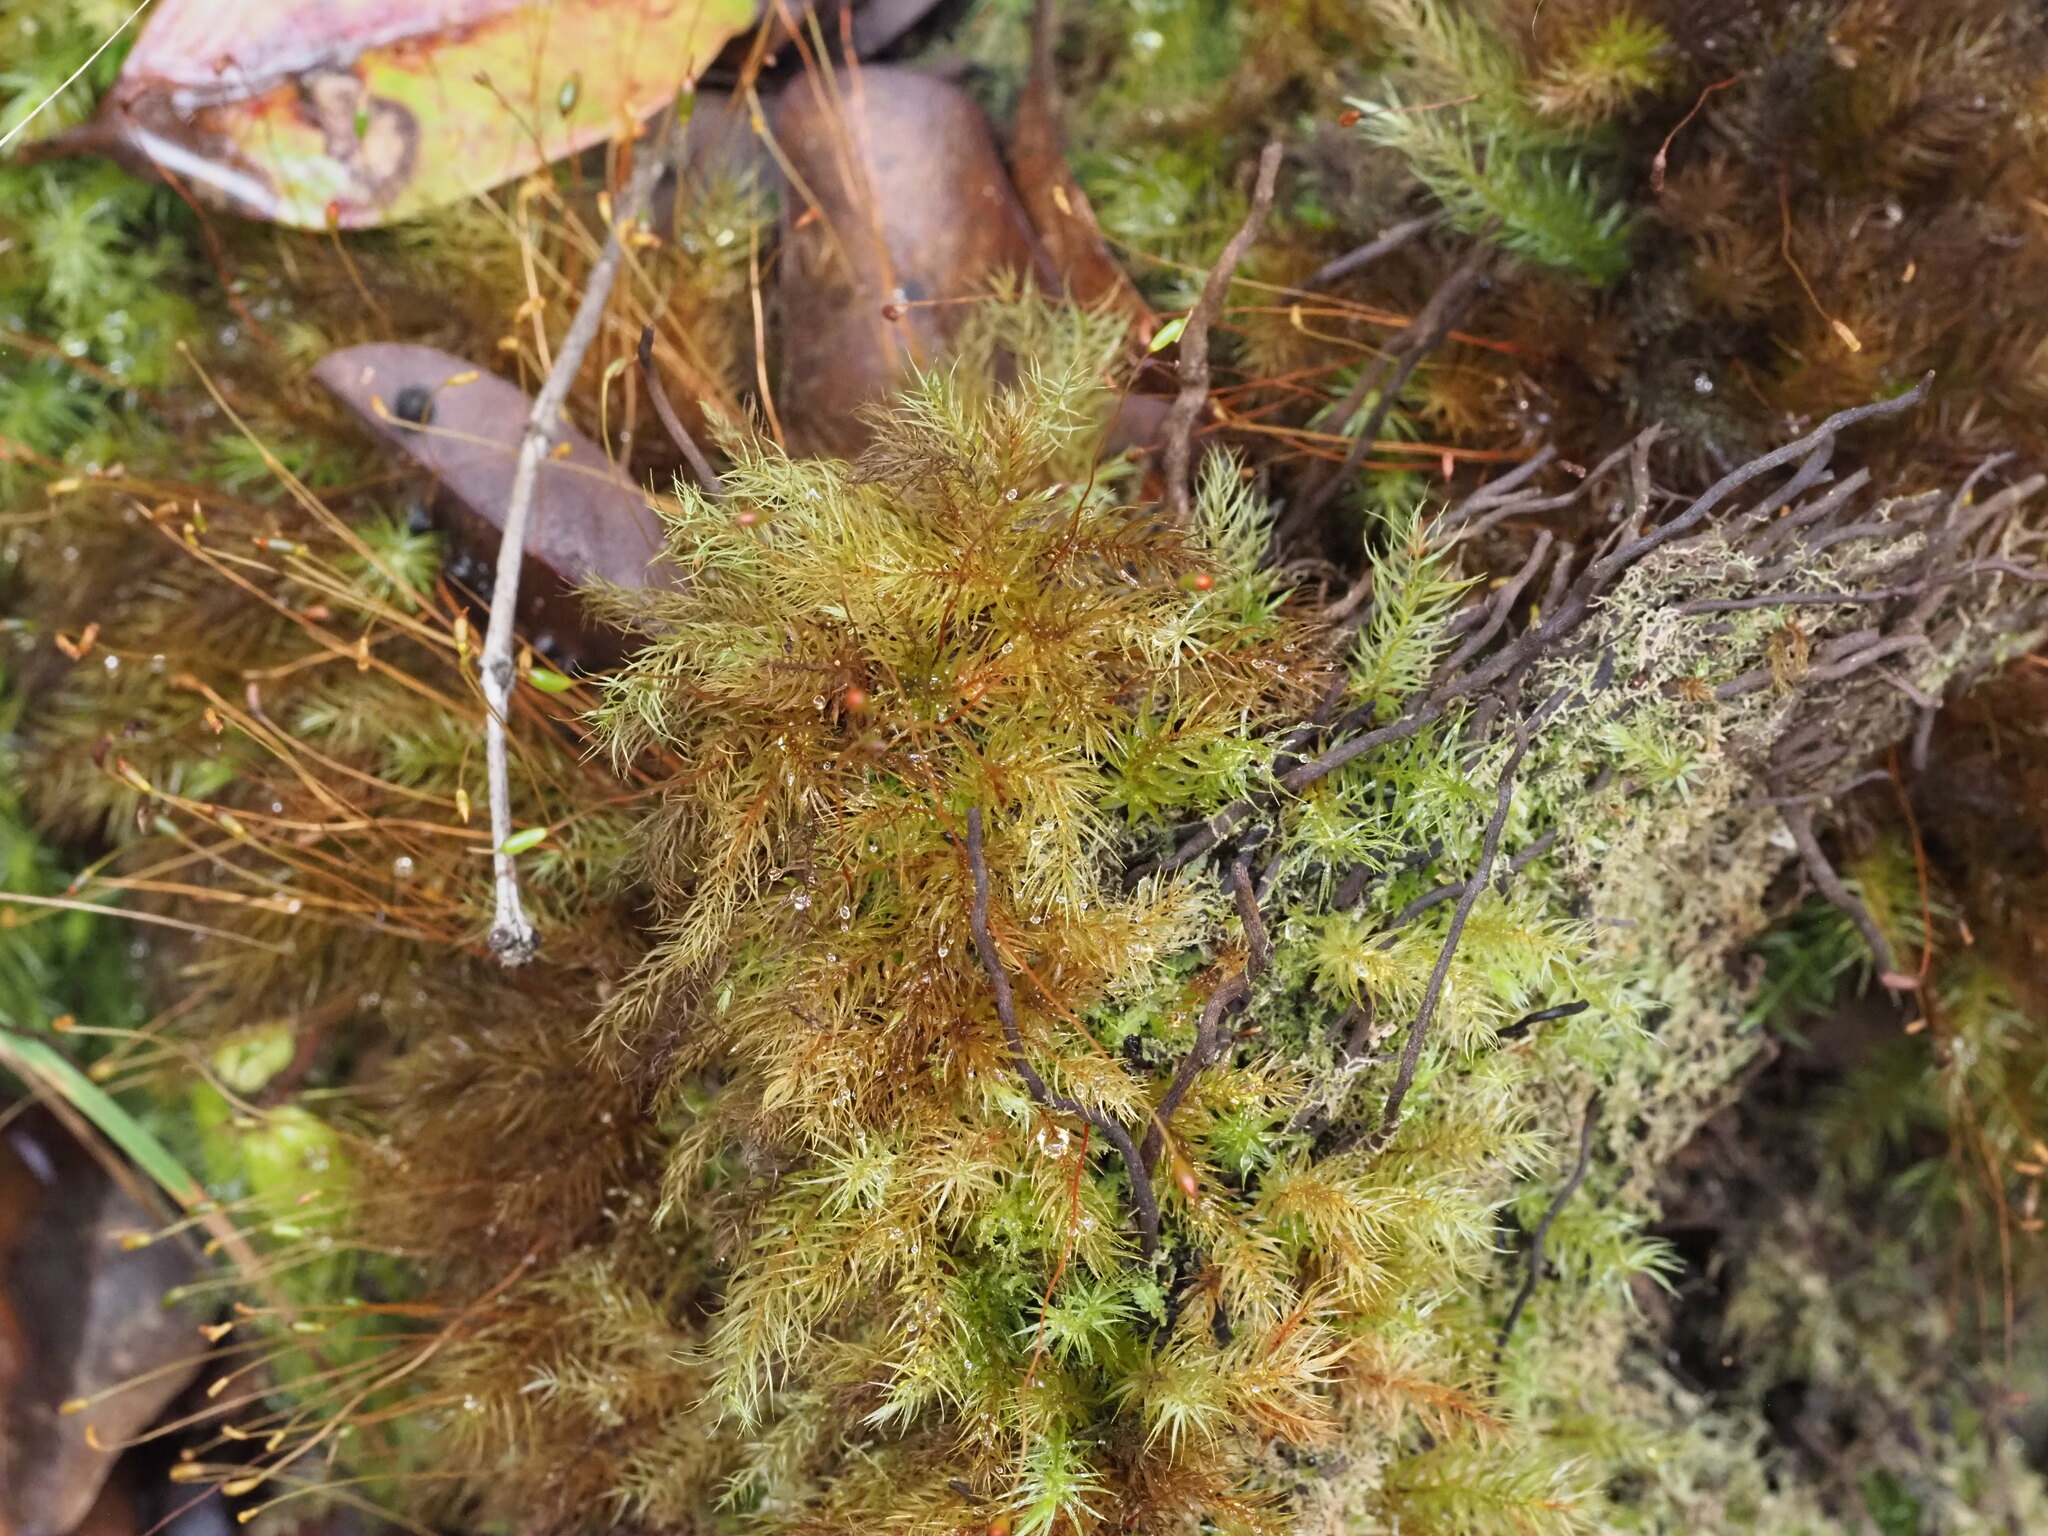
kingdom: Plantae
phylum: Bryophyta
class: Bryopsida
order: Rhizogoniales
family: Calomniaceae
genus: Pyrrhobryum
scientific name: Pyrrhobryum spiniforme
